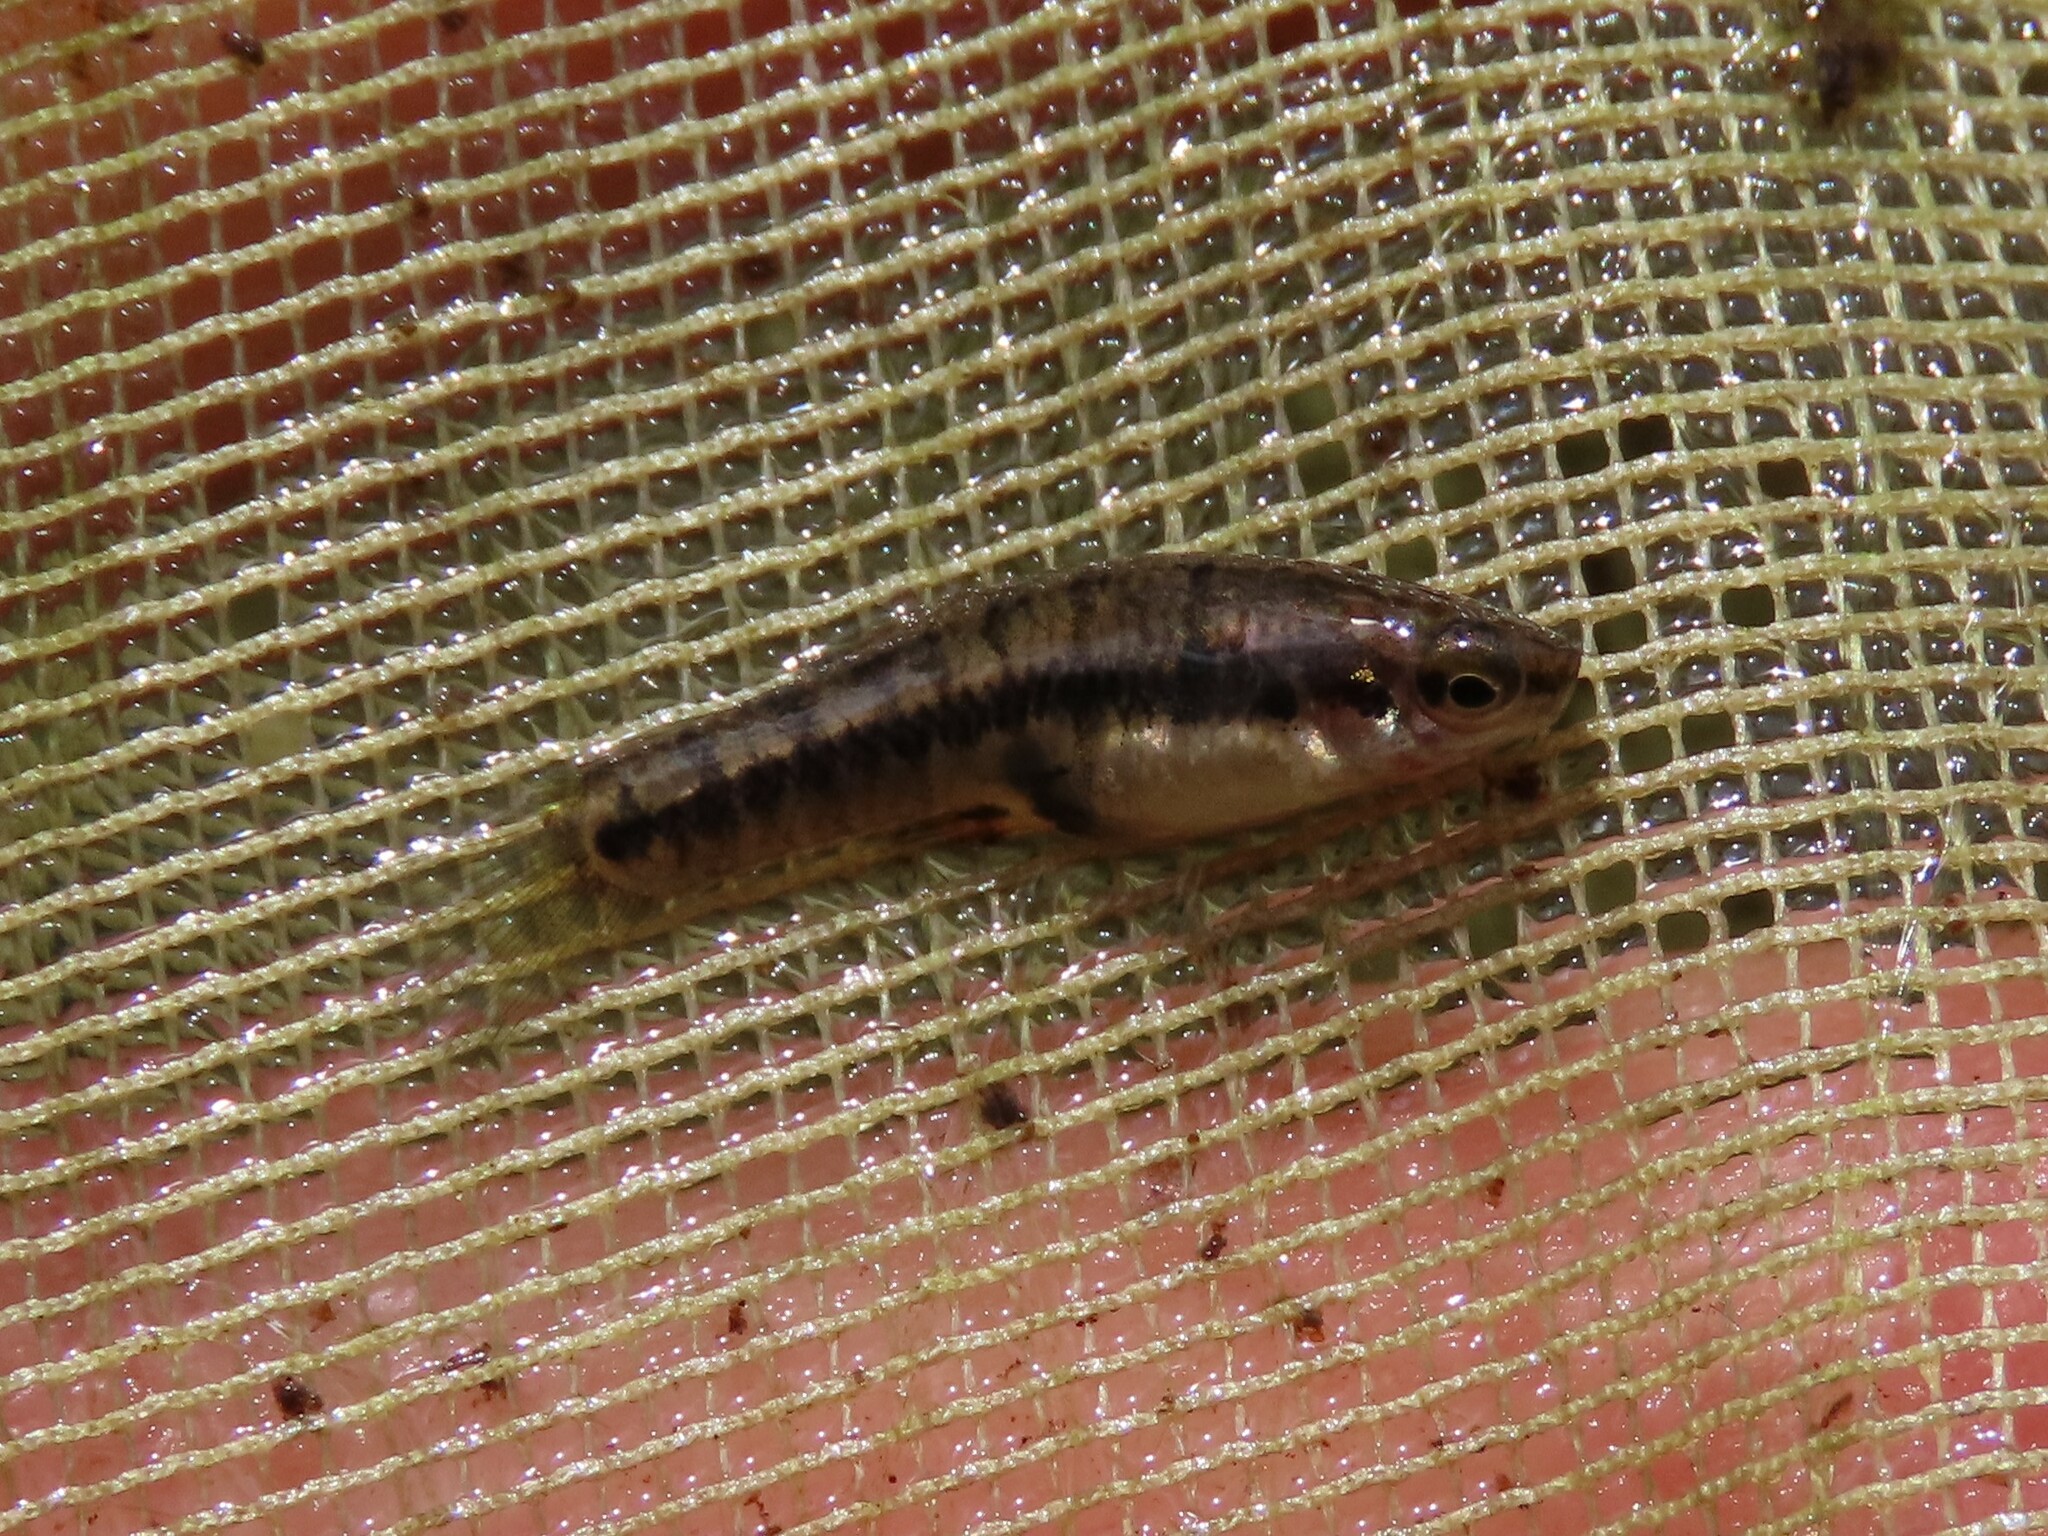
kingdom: Animalia
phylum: Chordata
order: Cyprinodontiformes
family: Poeciliidae
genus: Heterandria
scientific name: Heterandria formosa
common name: Least killifish
